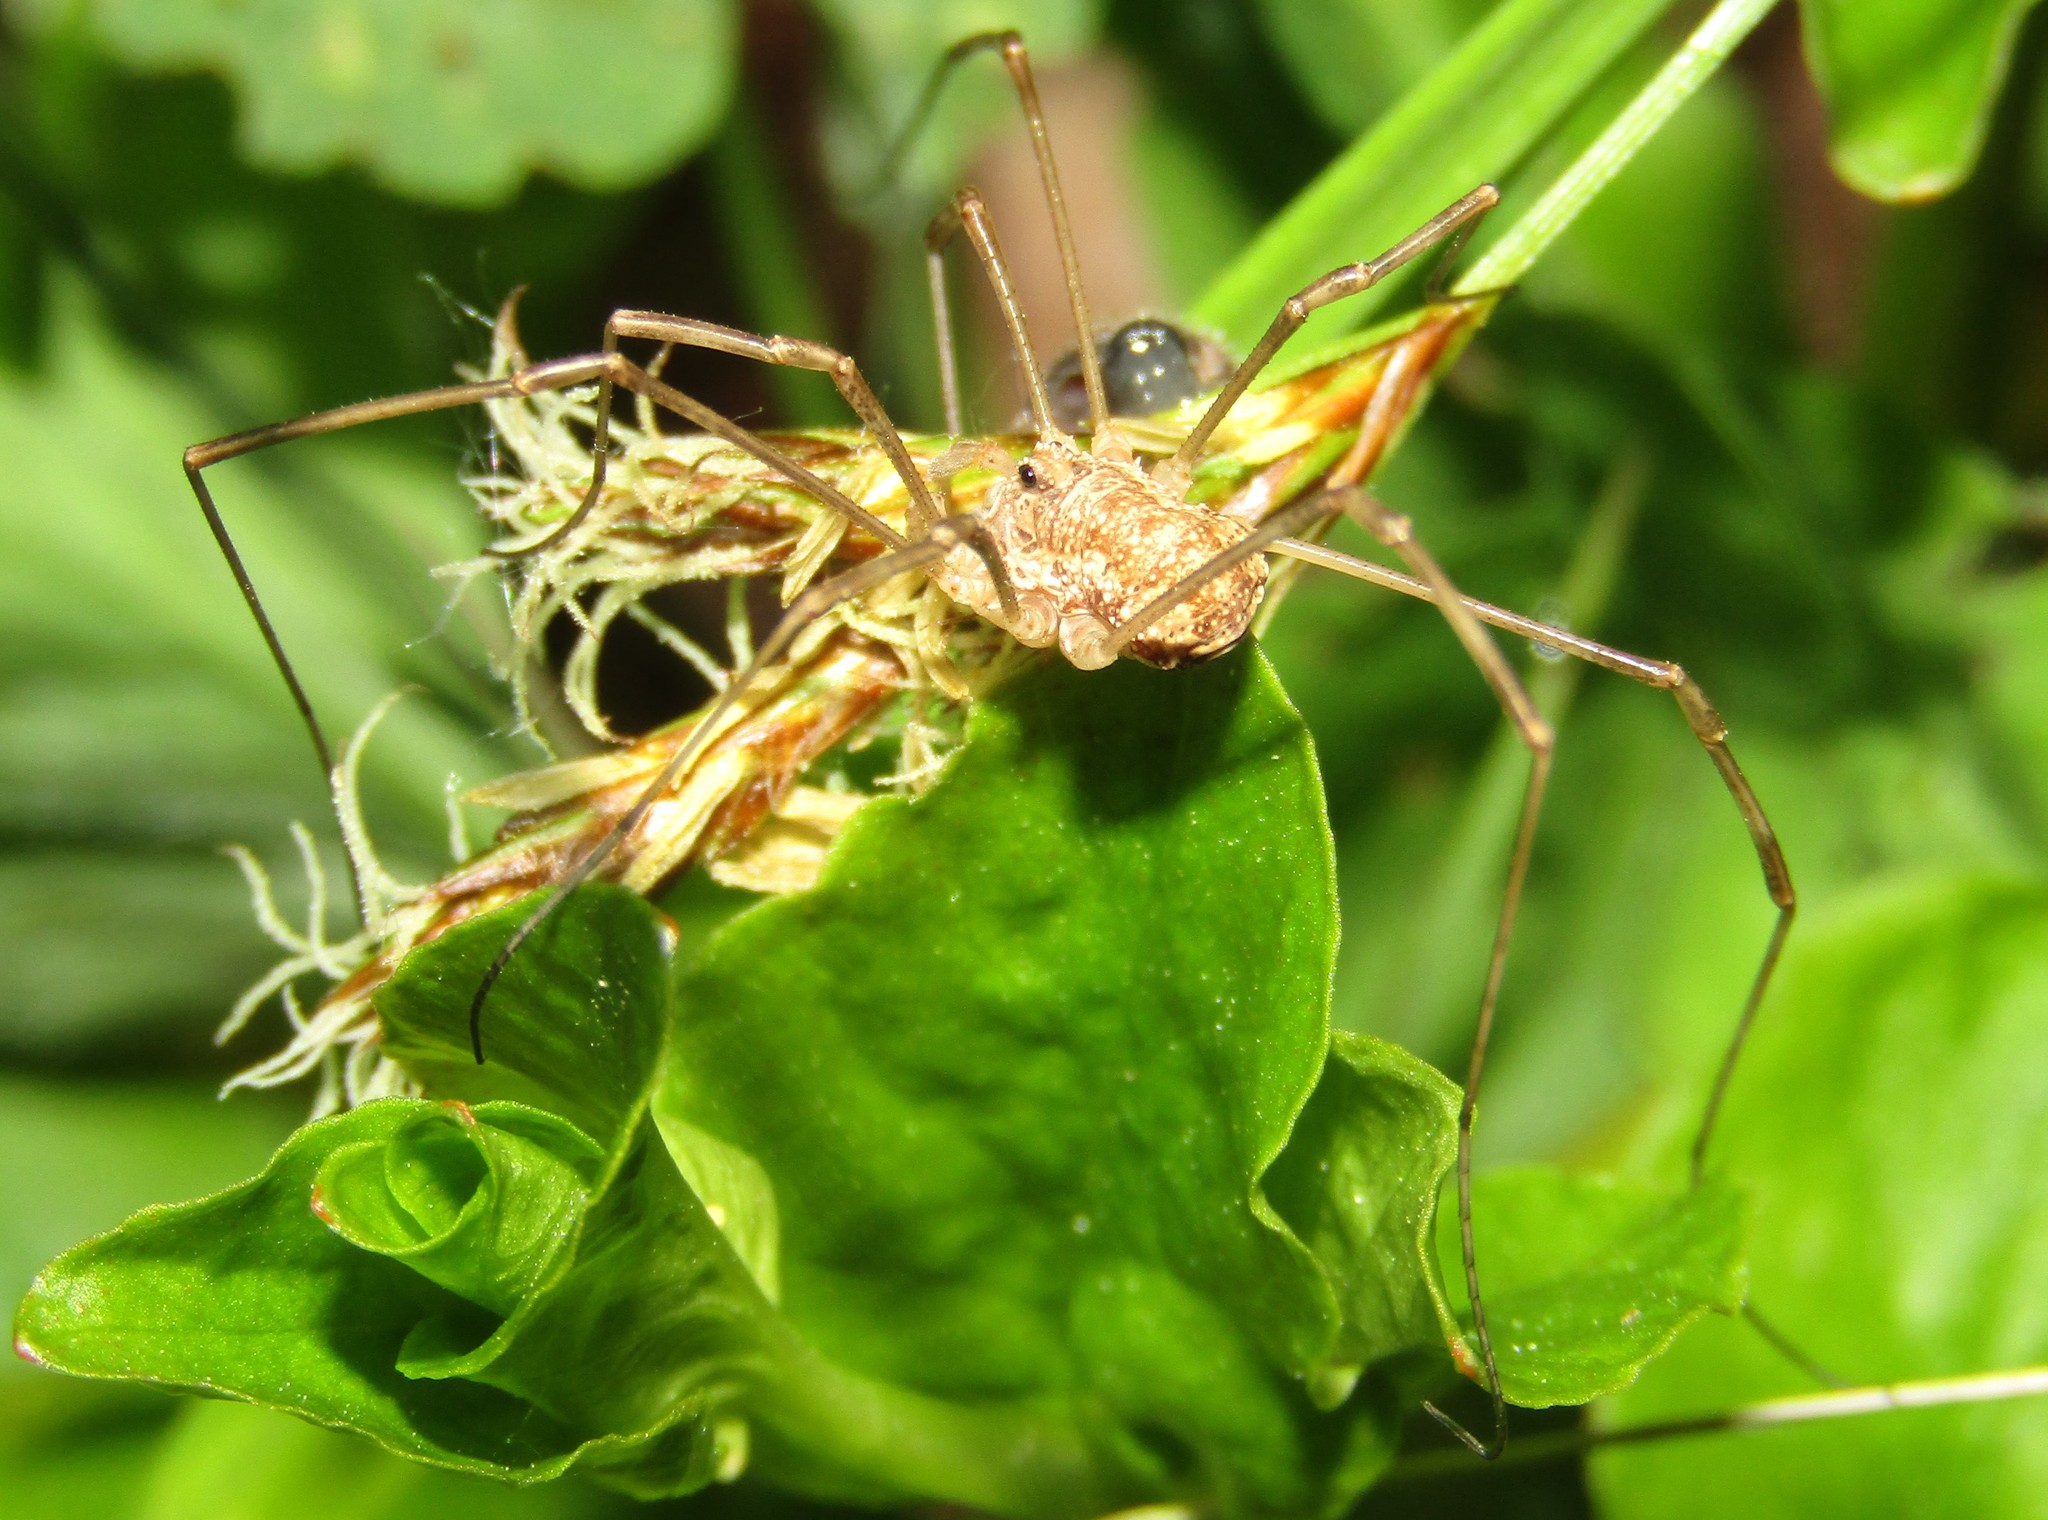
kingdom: Animalia
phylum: Arthropoda
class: Arachnida
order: Opiliones
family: Phalangiidae
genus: Rilaena
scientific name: Rilaena triangularis
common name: Spring harvestman
